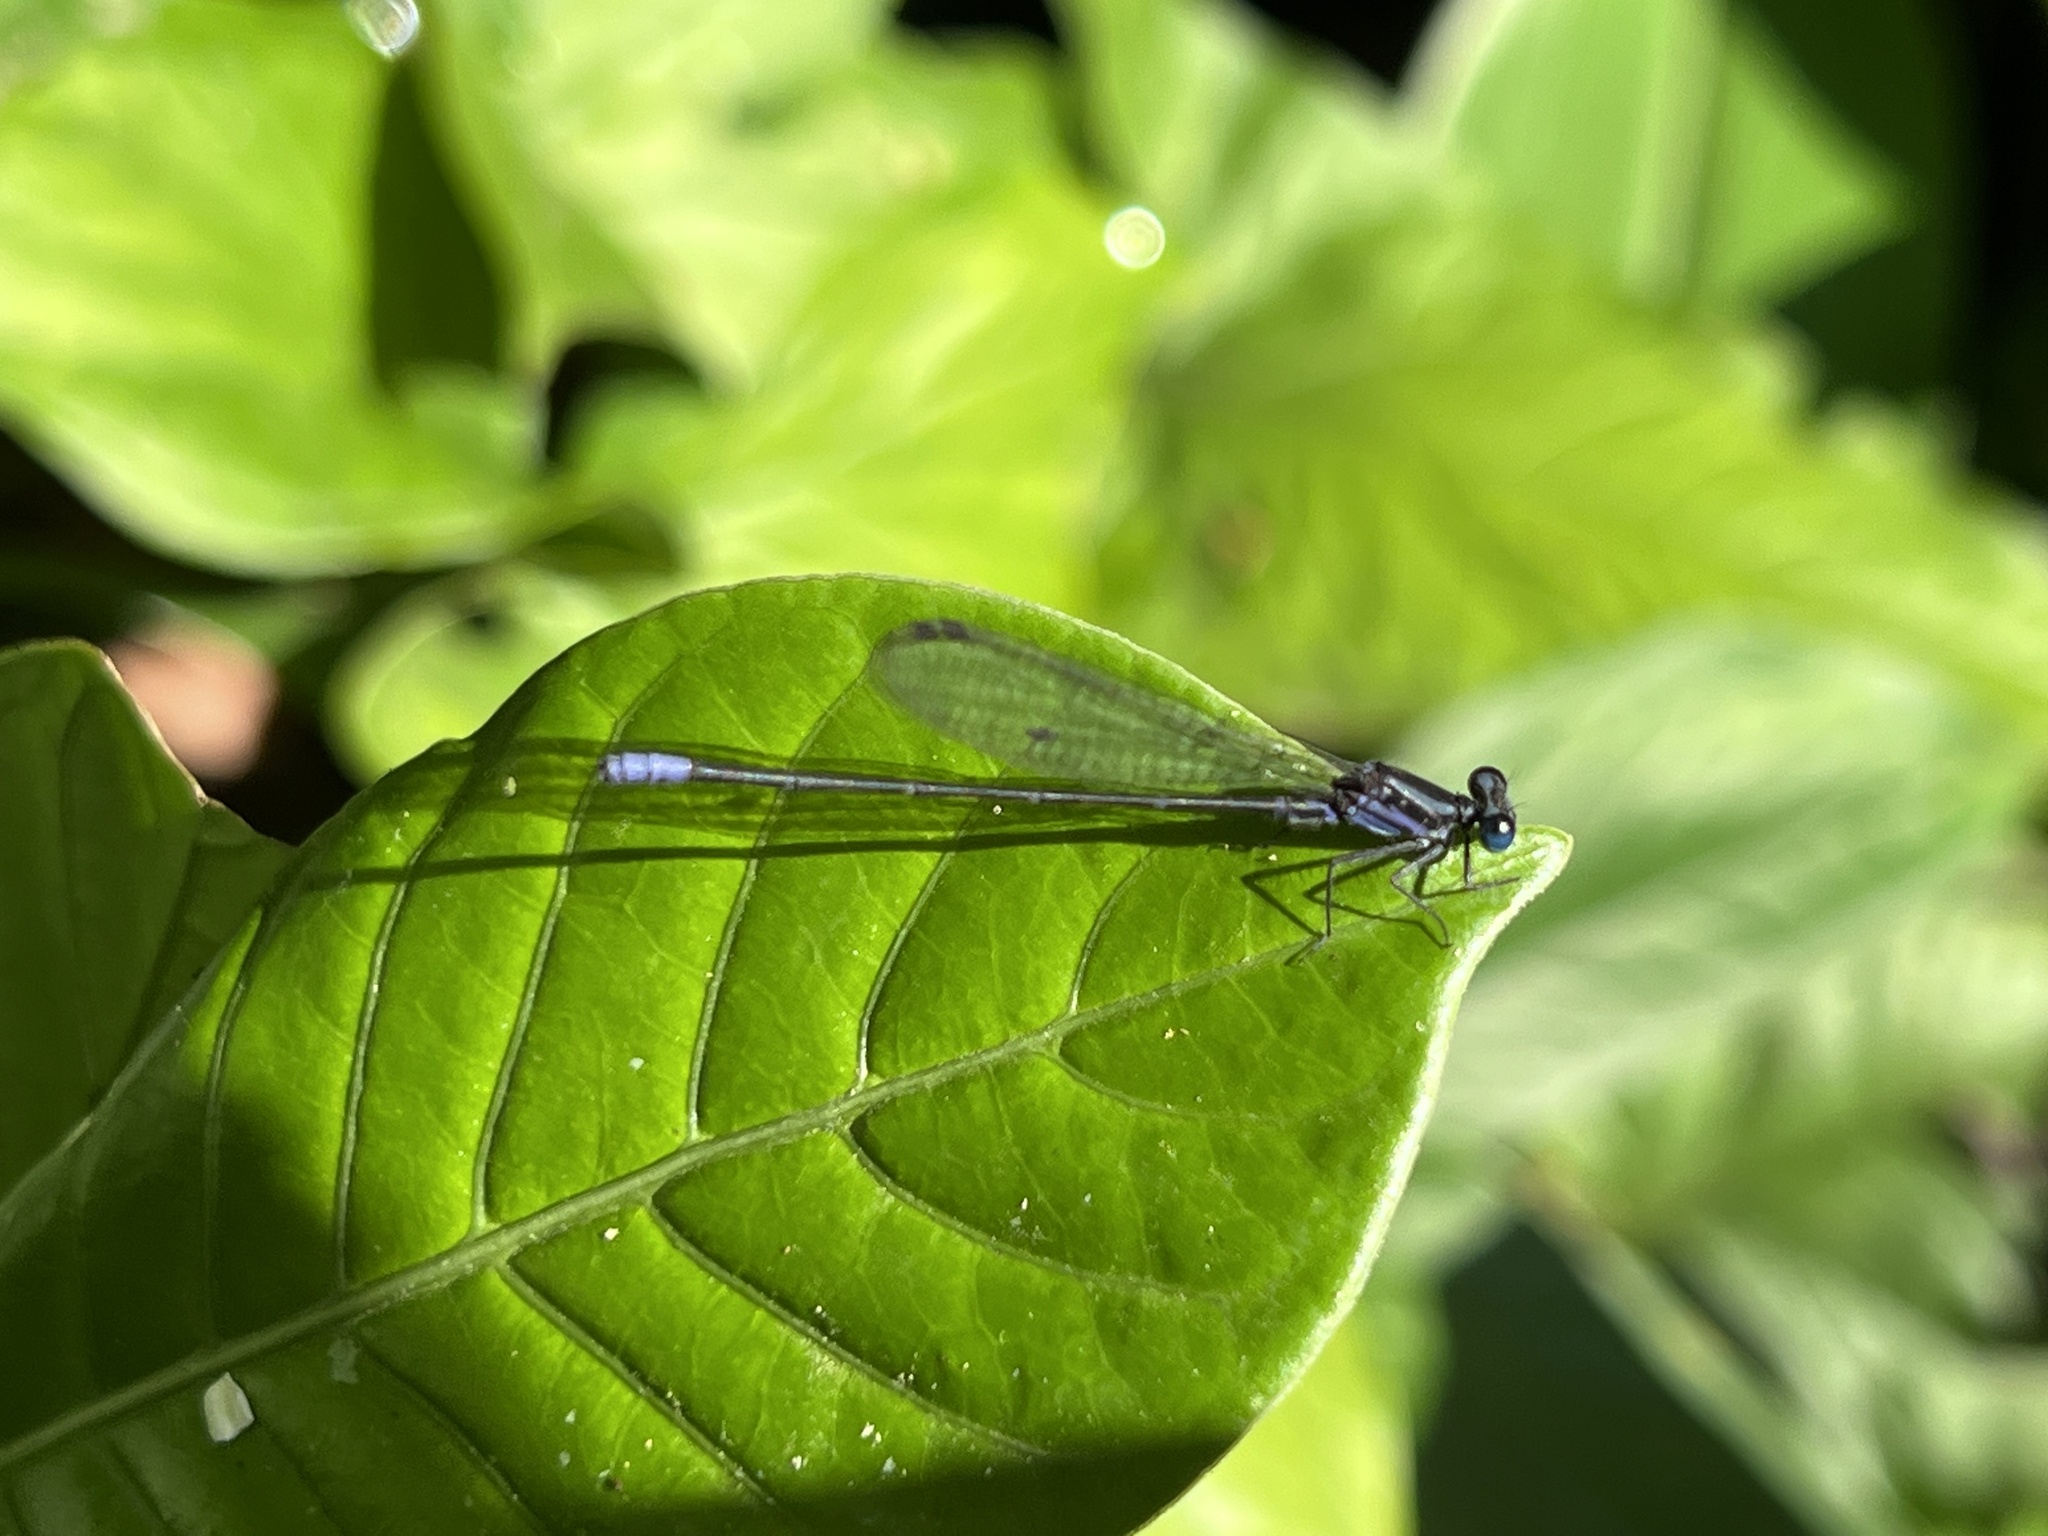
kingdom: Animalia
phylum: Arthropoda
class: Insecta
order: Odonata
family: Coenagrionidae
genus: Argia
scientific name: Argia pulla
